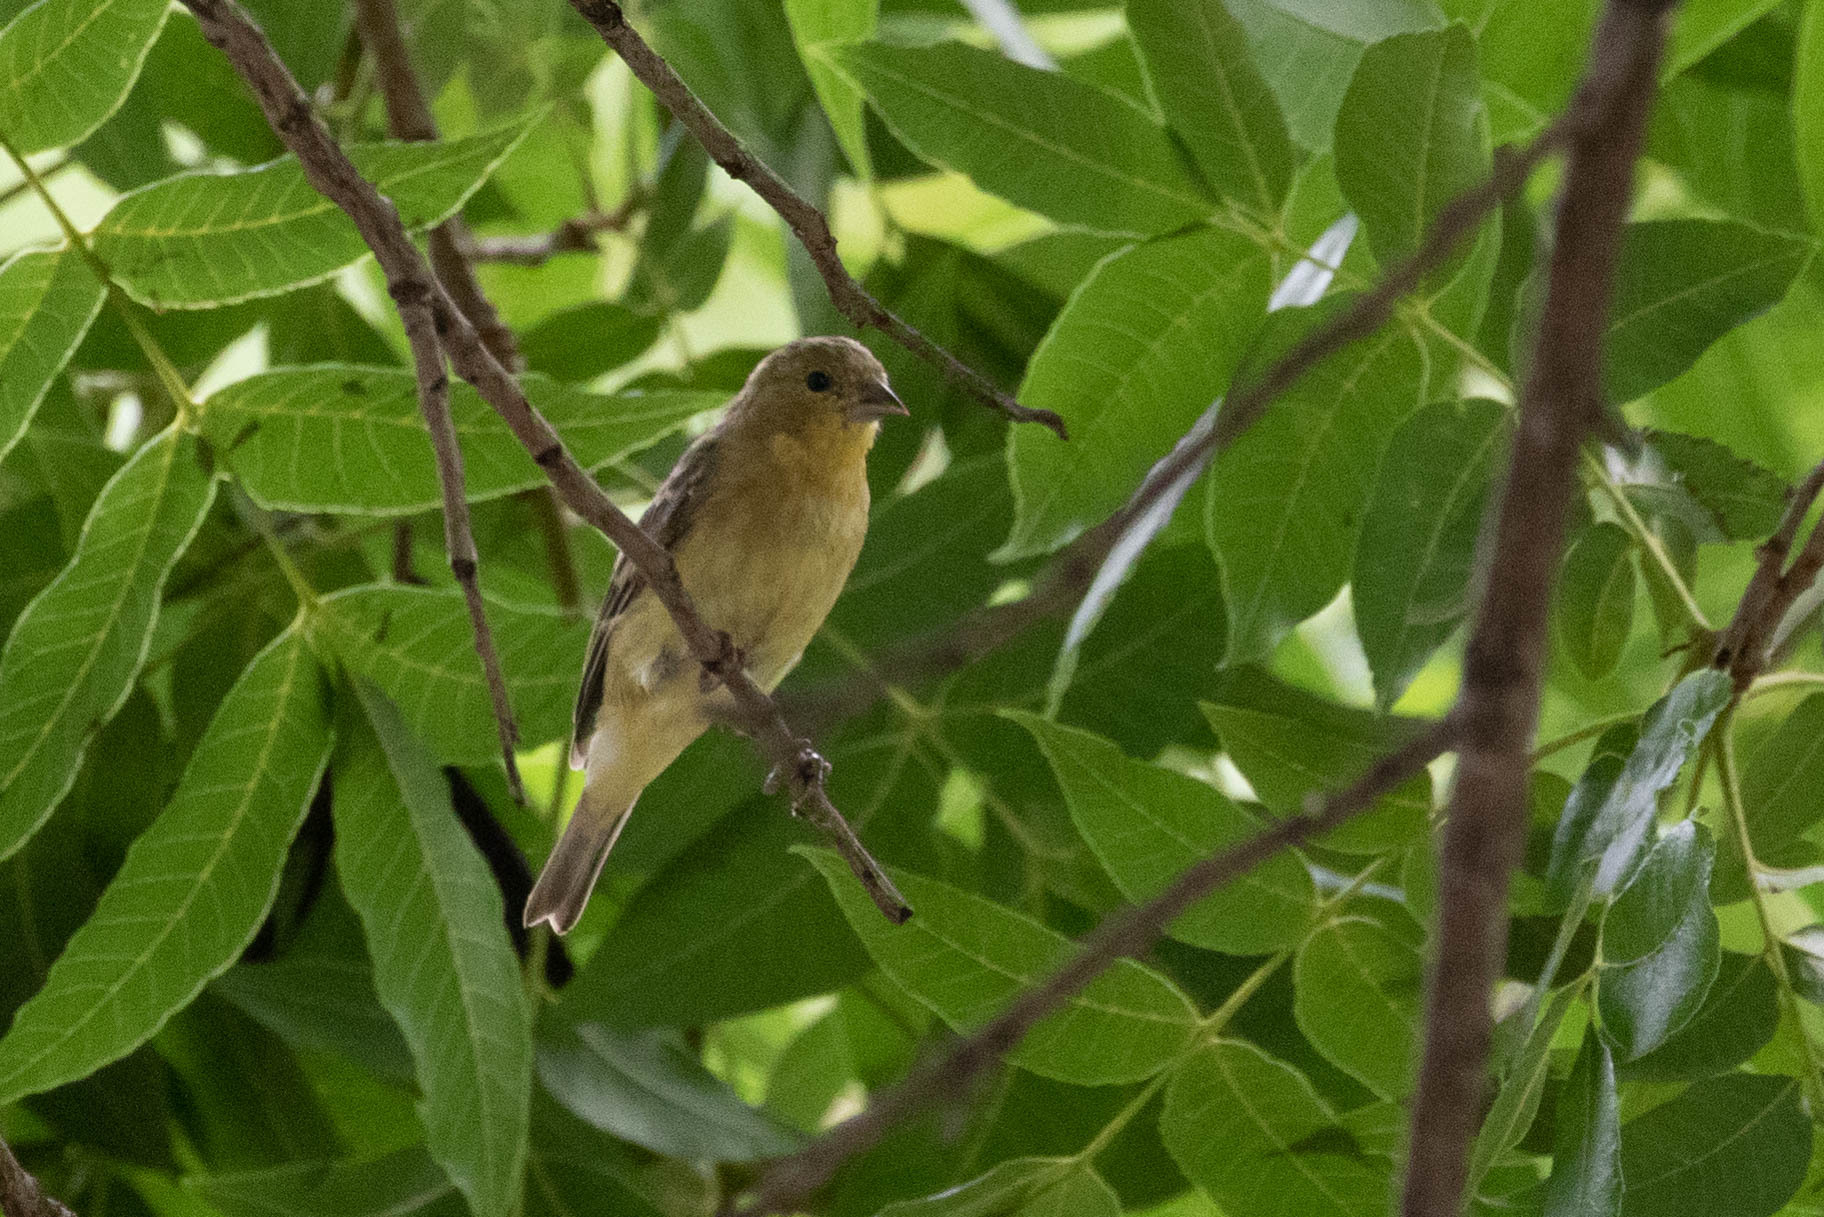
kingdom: Animalia
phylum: Chordata
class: Aves
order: Passeriformes
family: Fringillidae
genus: Spinus
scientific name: Spinus psaltria
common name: Lesser goldfinch
